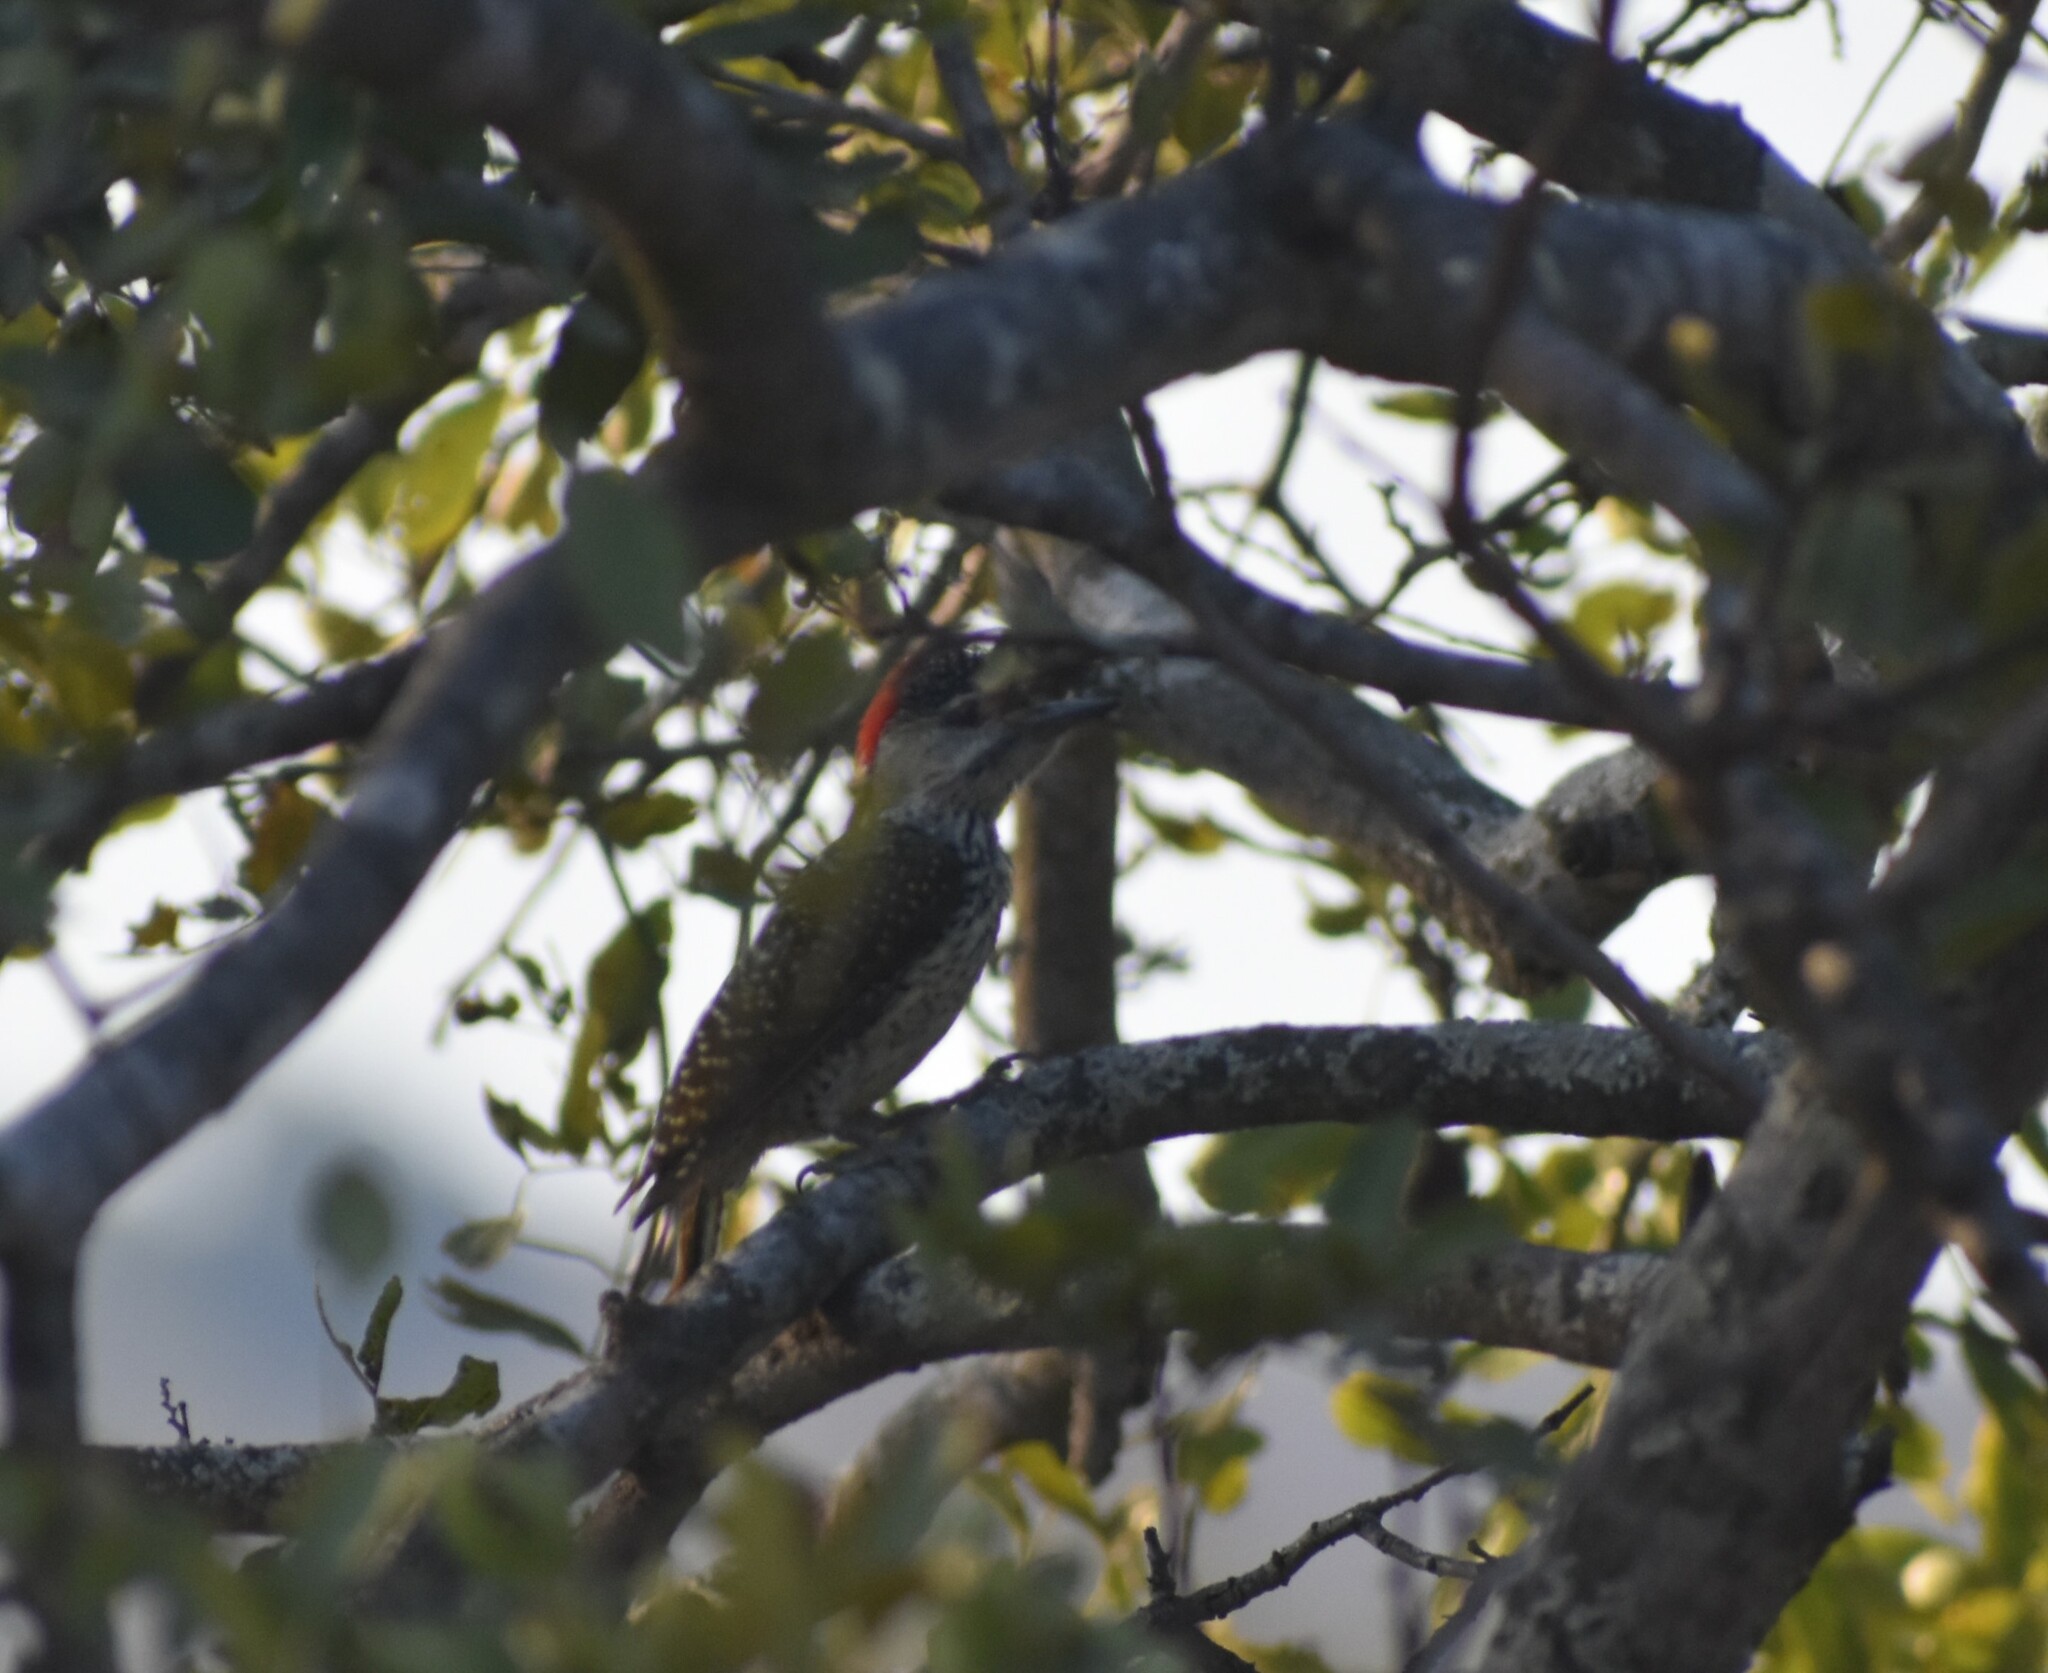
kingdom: Animalia
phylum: Chordata
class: Aves
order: Piciformes
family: Picidae
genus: Campethera
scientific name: Campethera abingoni
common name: Golden-tailed woodpecker
